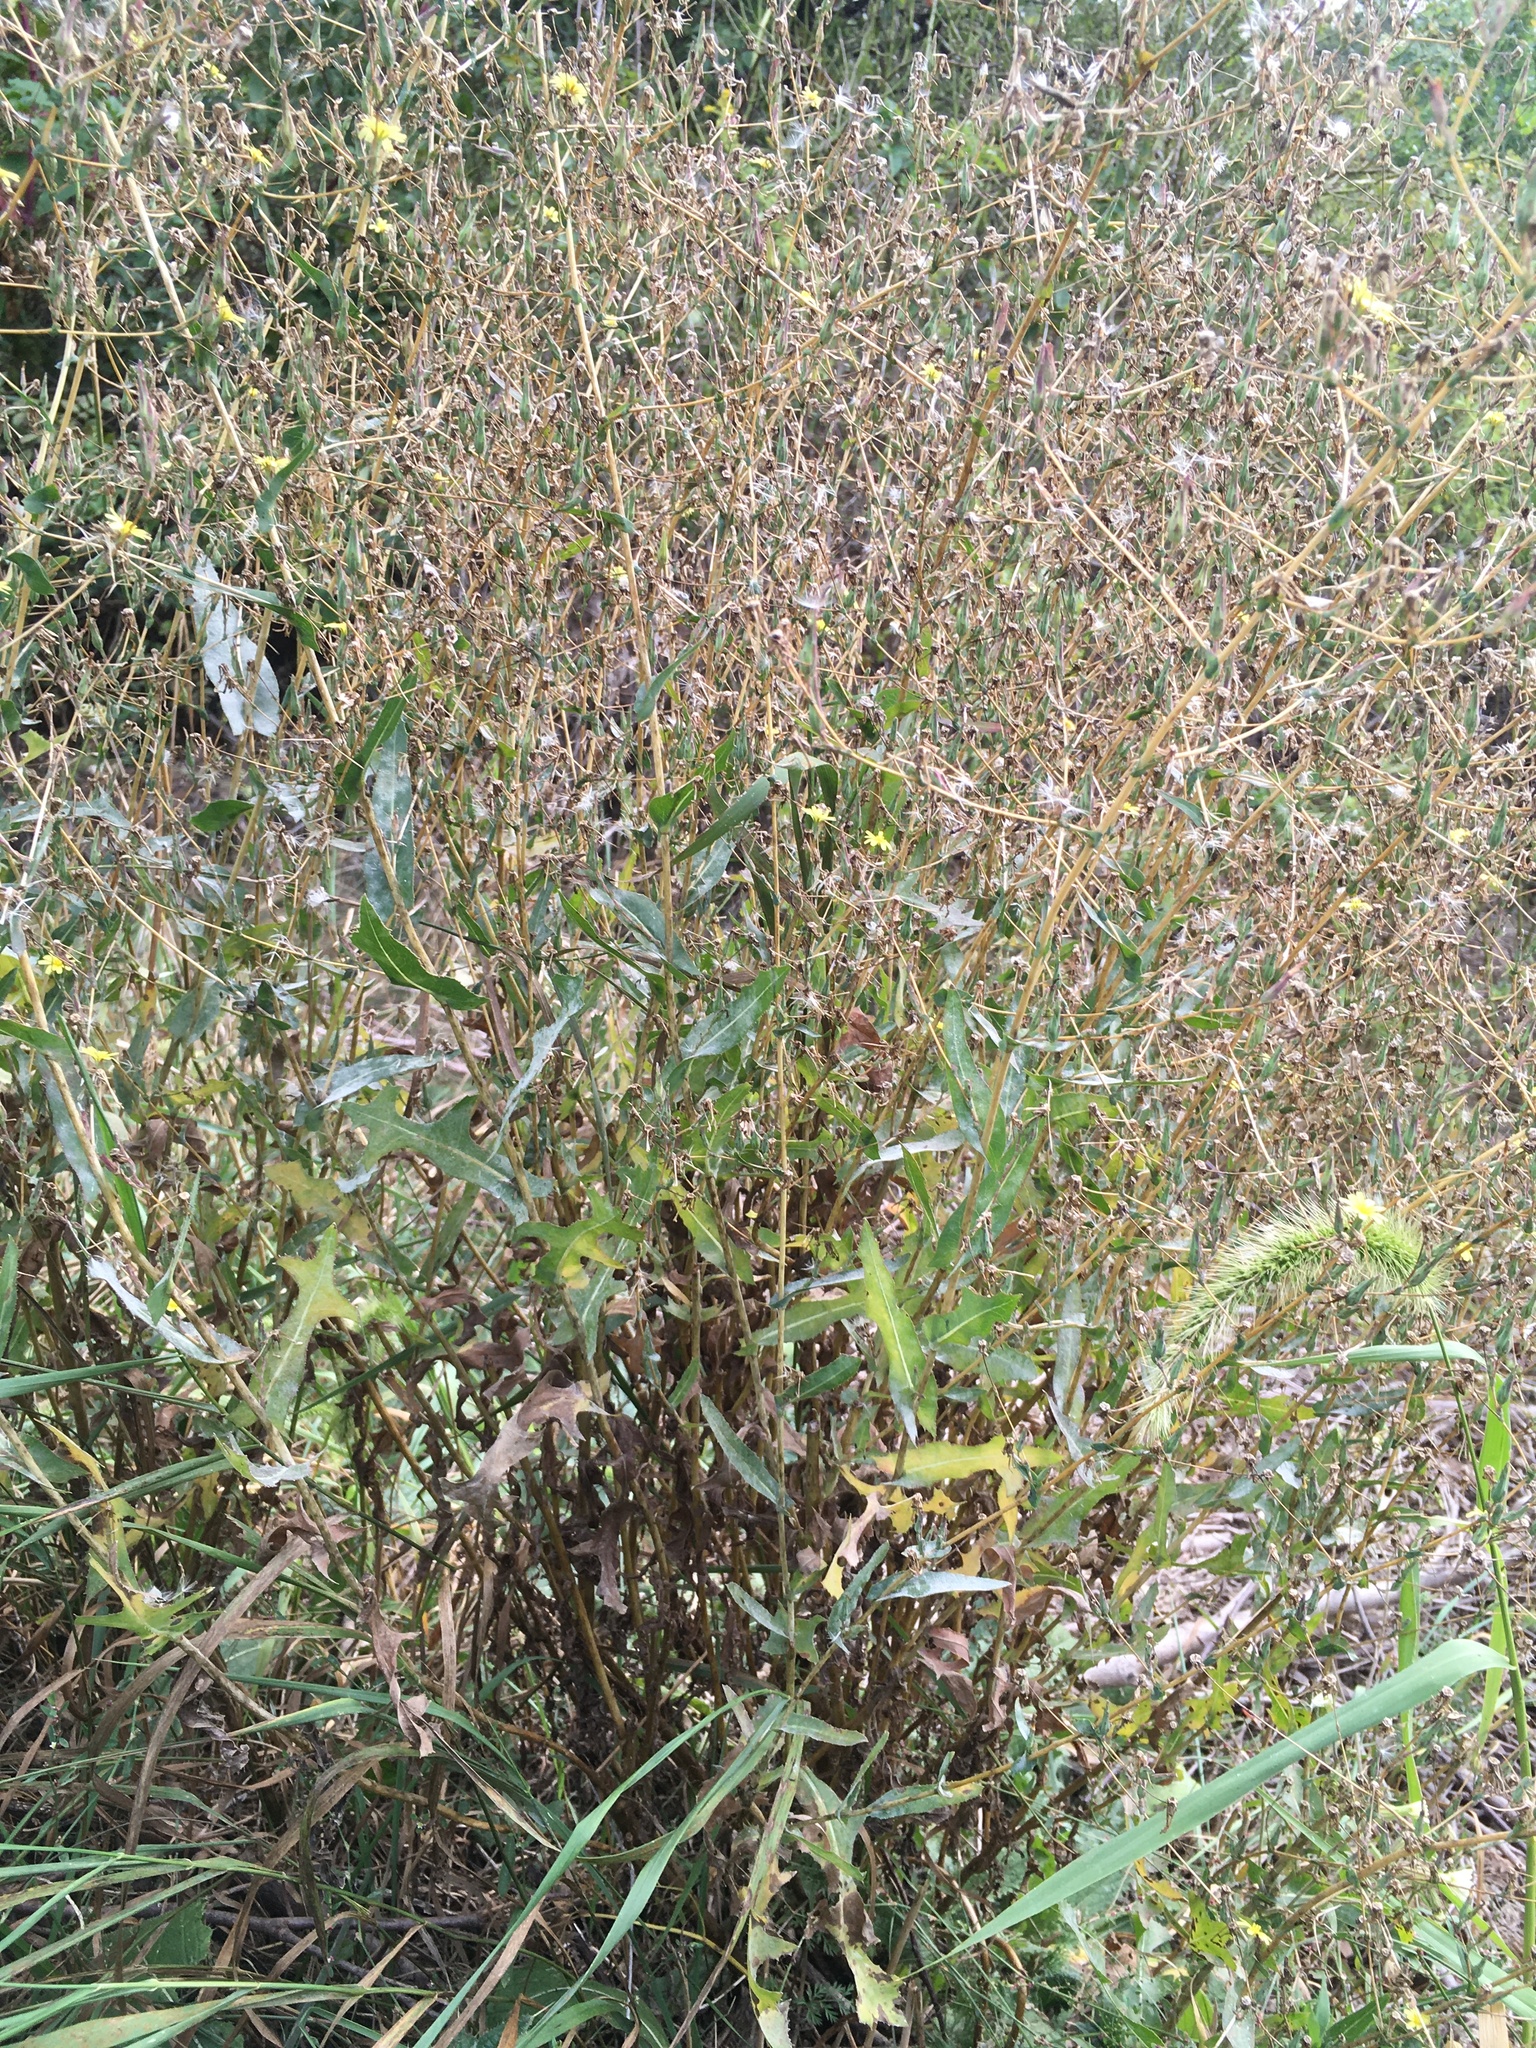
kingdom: Plantae
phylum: Tracheophyta
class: Magnoliopsida
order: Asterales
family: Asteraceae
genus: Lactuca
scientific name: Lactuca serriola
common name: Prickly lettuce
